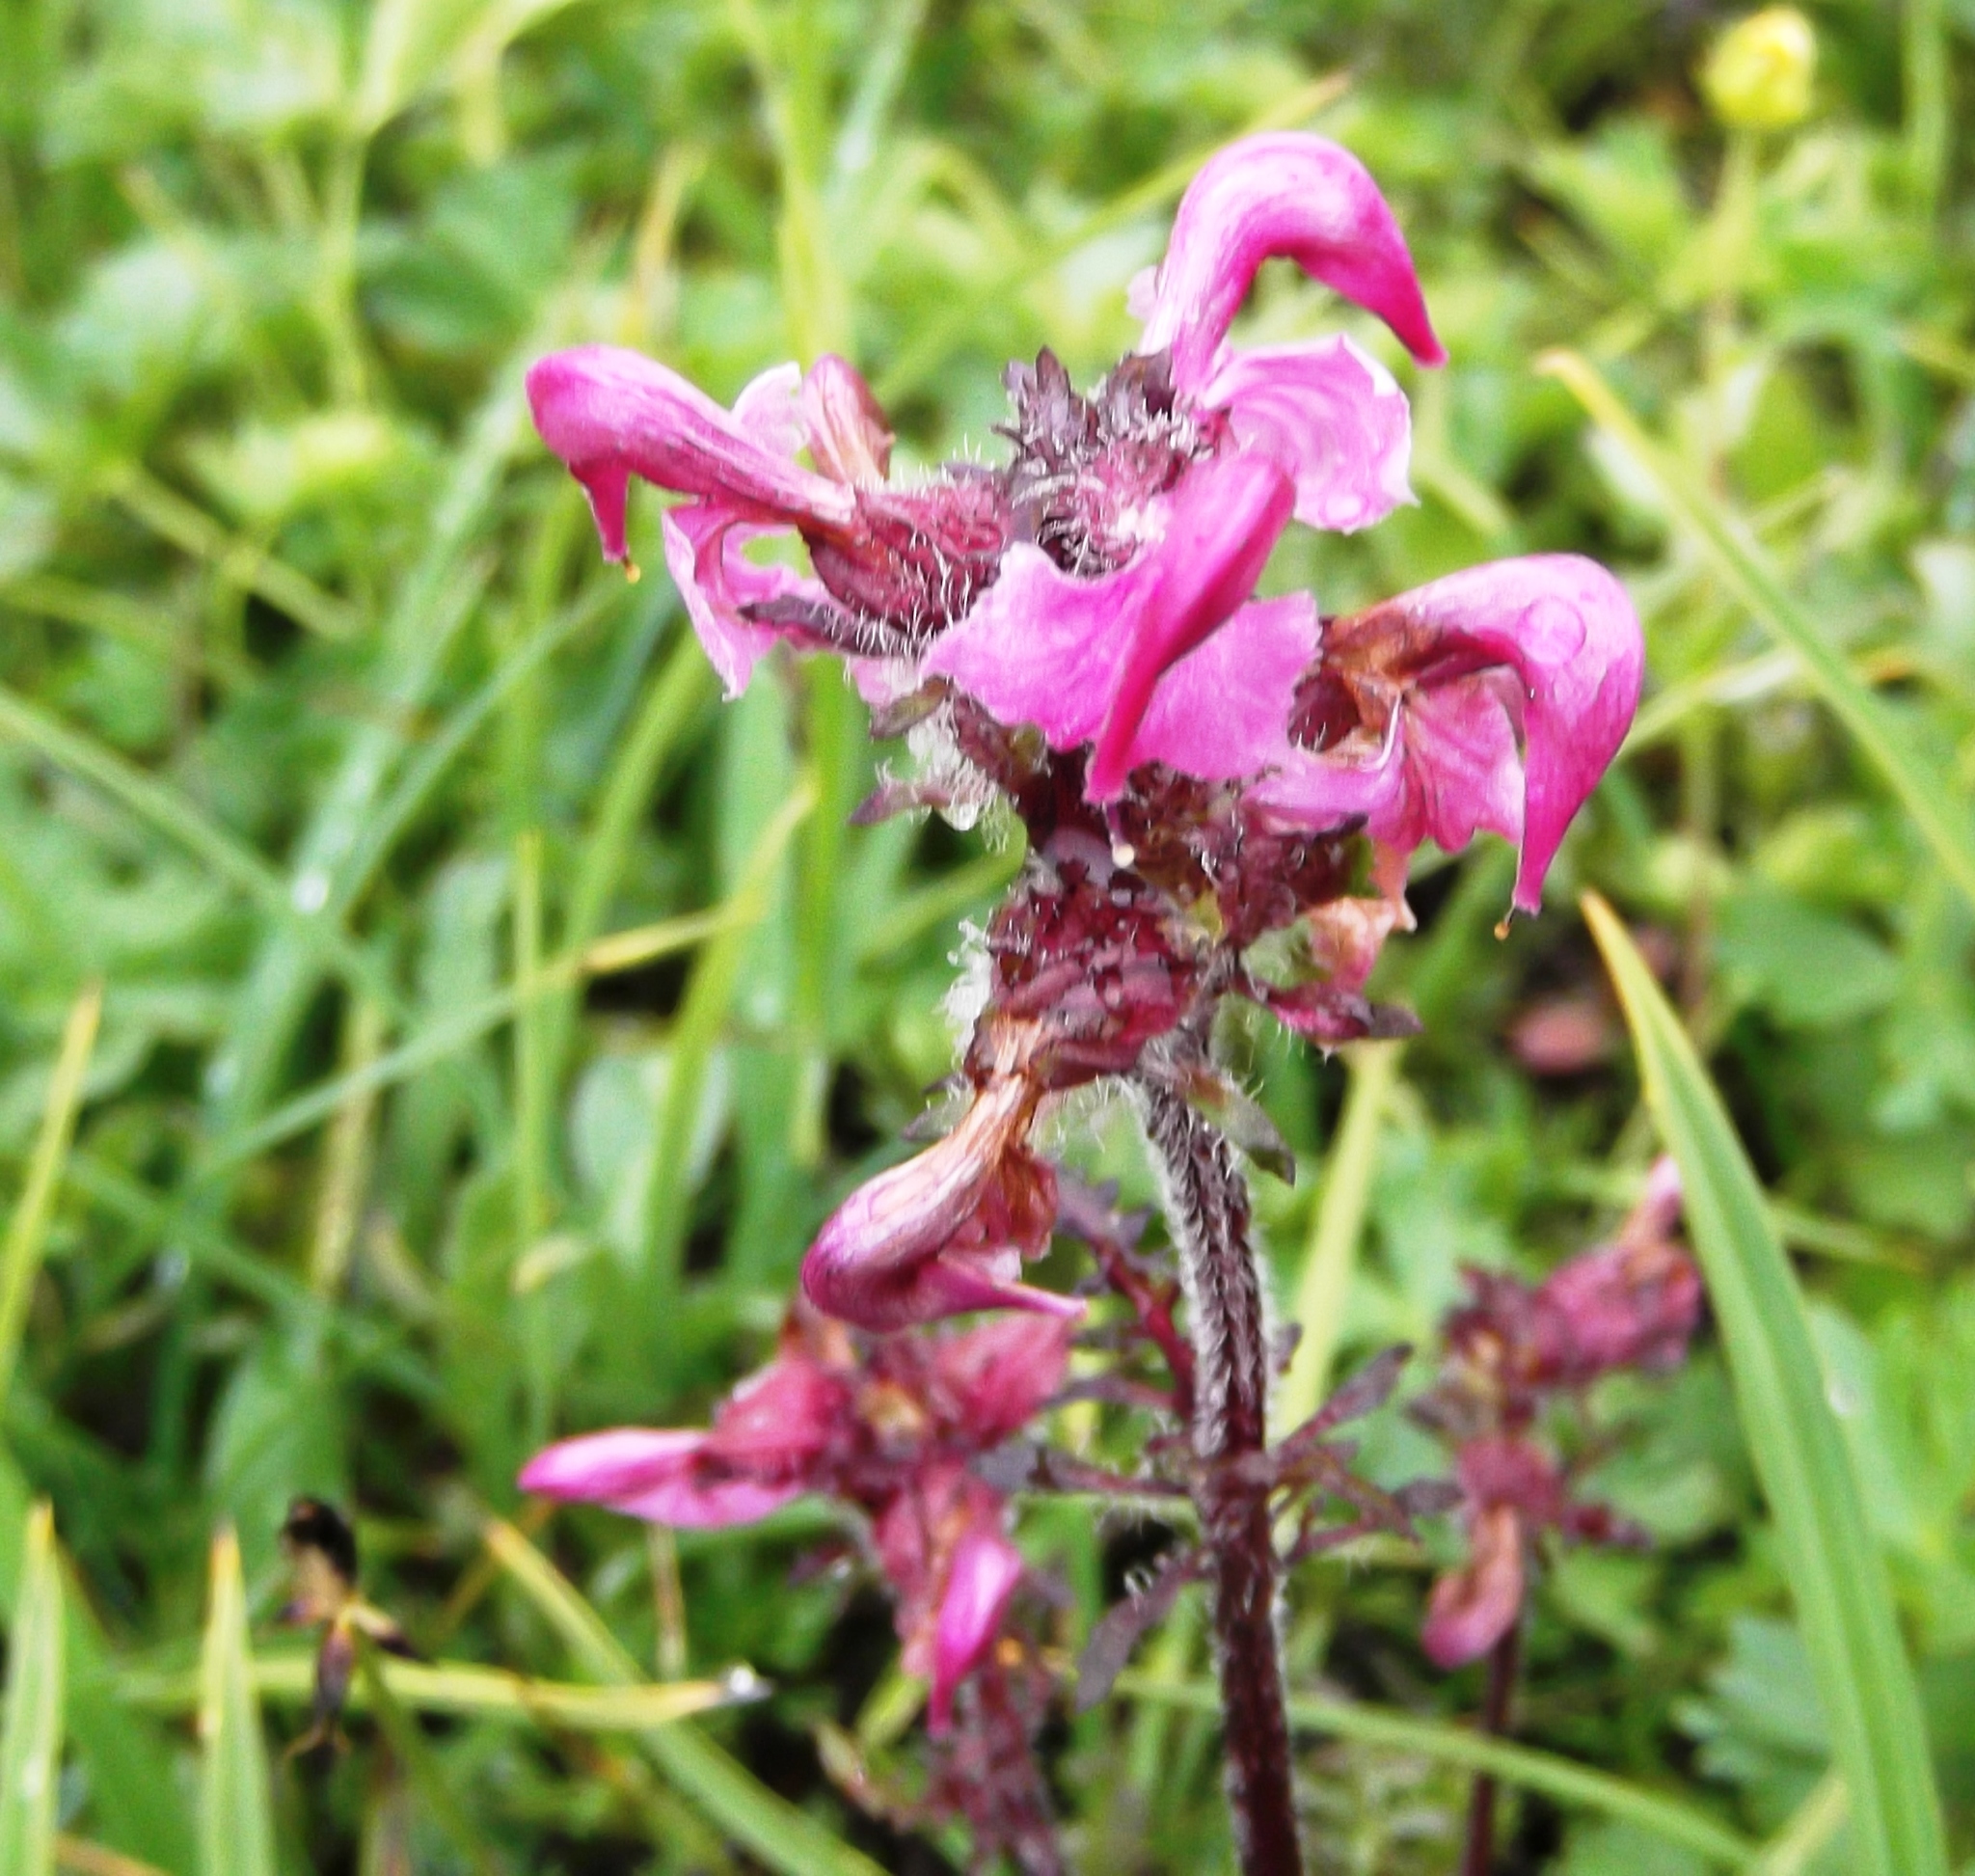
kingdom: Plantae
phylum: Tracheophyta
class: Magnoliopsida
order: Lamiales
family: Orobanchaceae
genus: Pedicularis
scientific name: Pedicularis ornithorhynchos
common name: Bird's-beak lousewort
